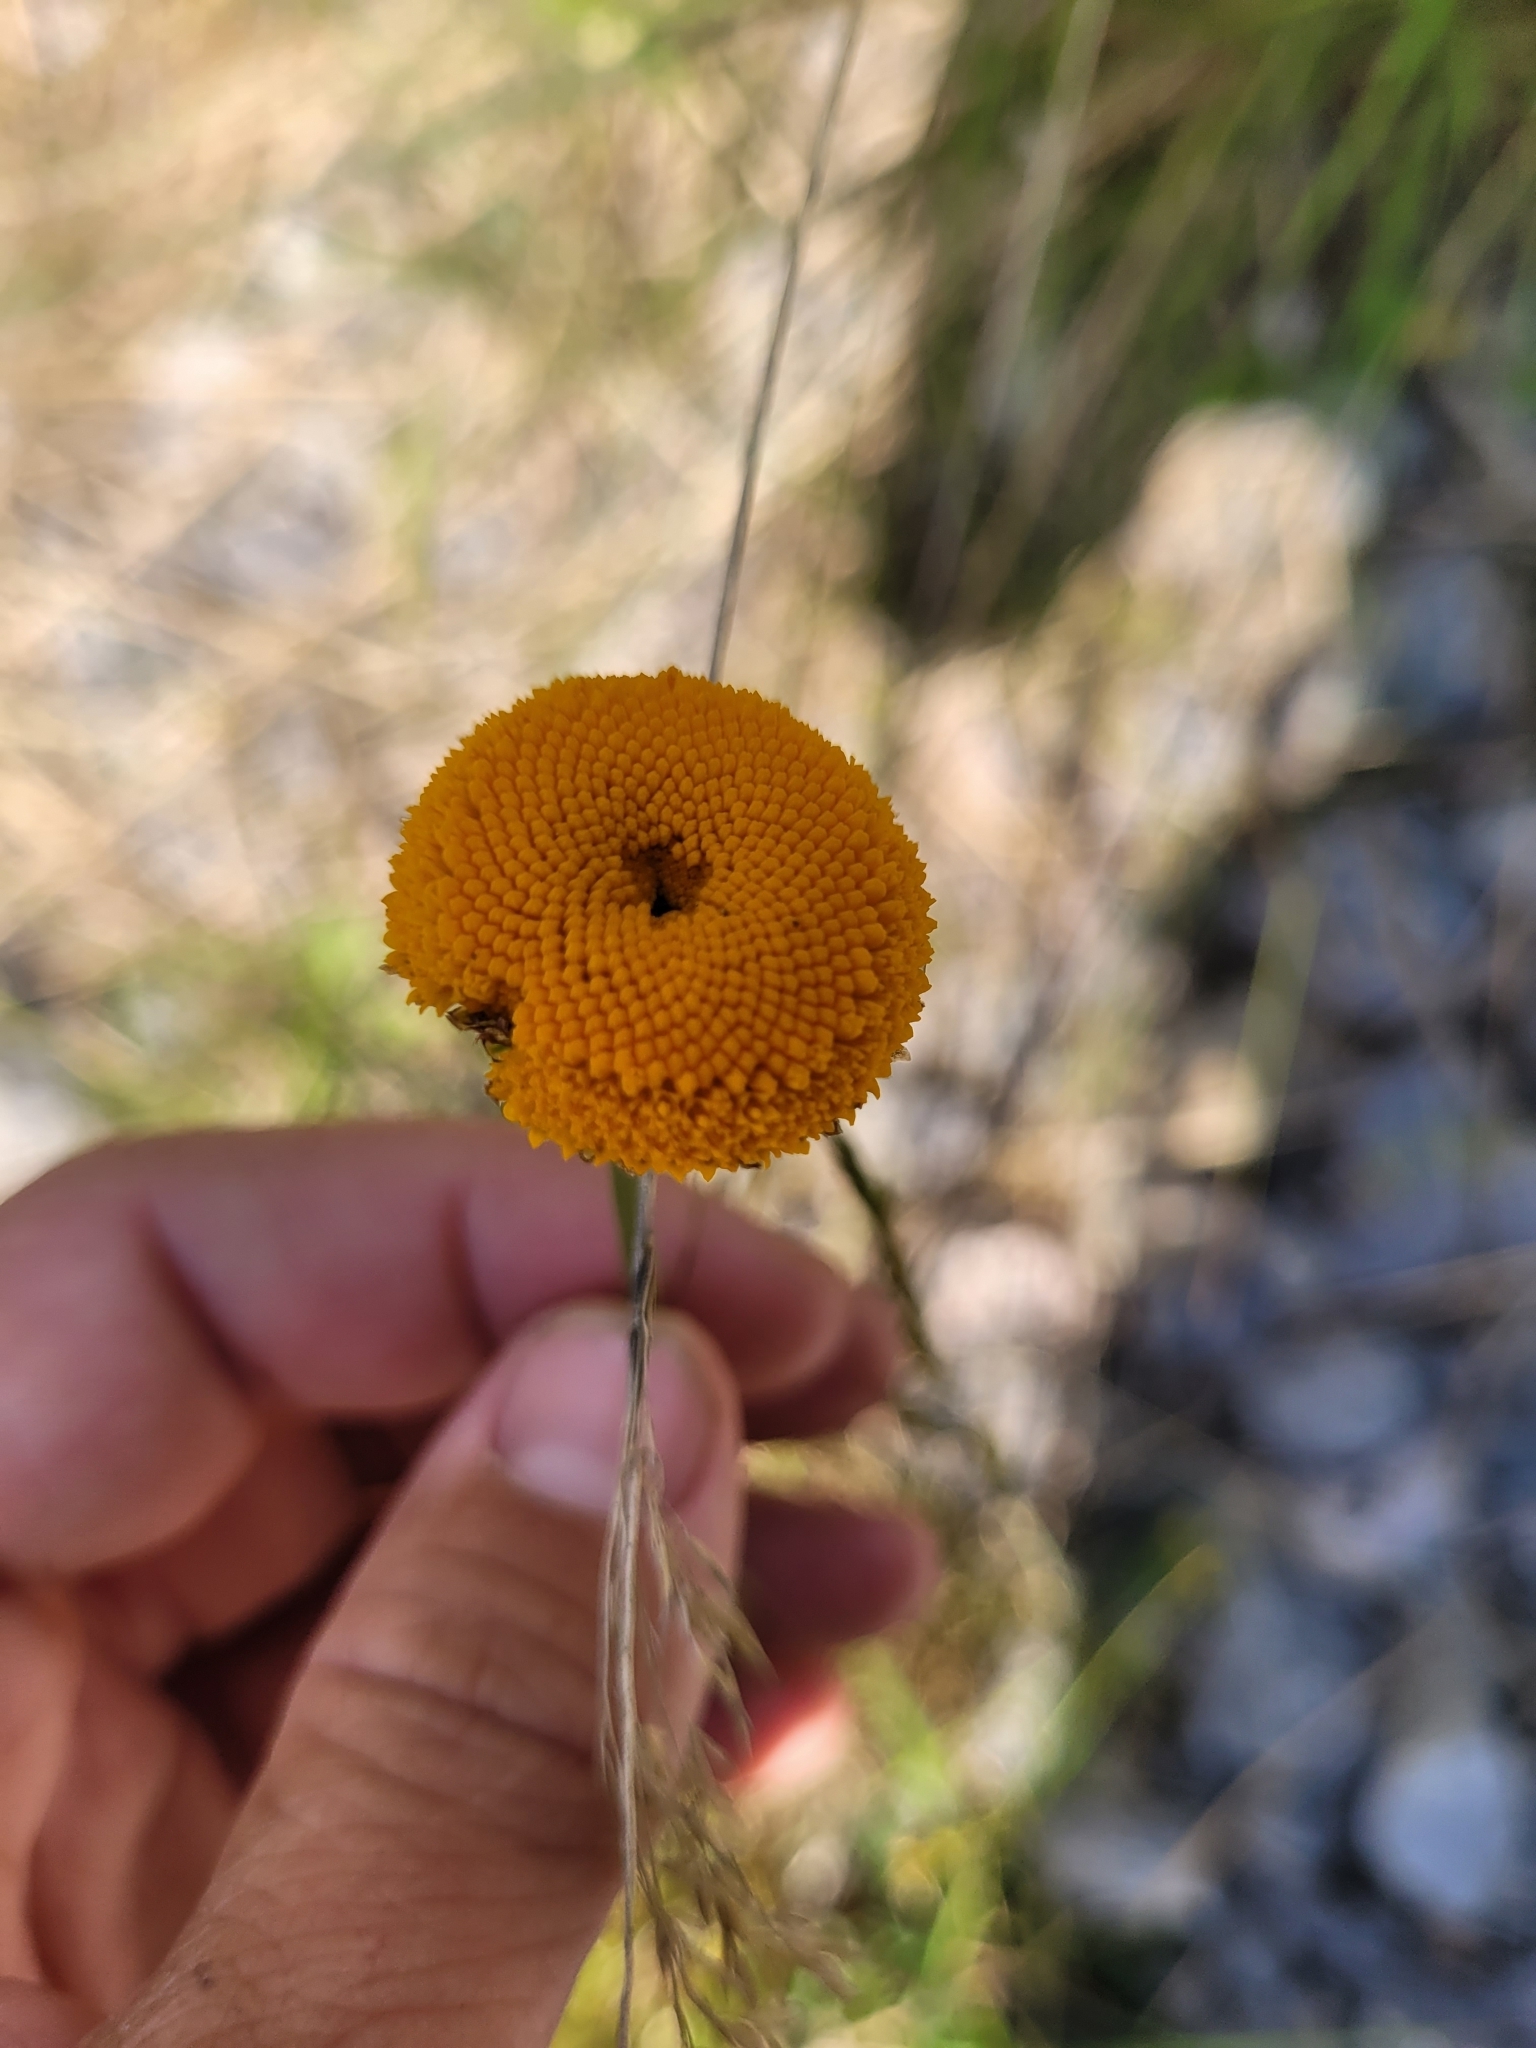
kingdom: Plantae
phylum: Tracheophyta
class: Magnoliopsida
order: Asterales
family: Asteraceae
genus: Leucanthemum
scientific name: Leucanthemum virgatum
